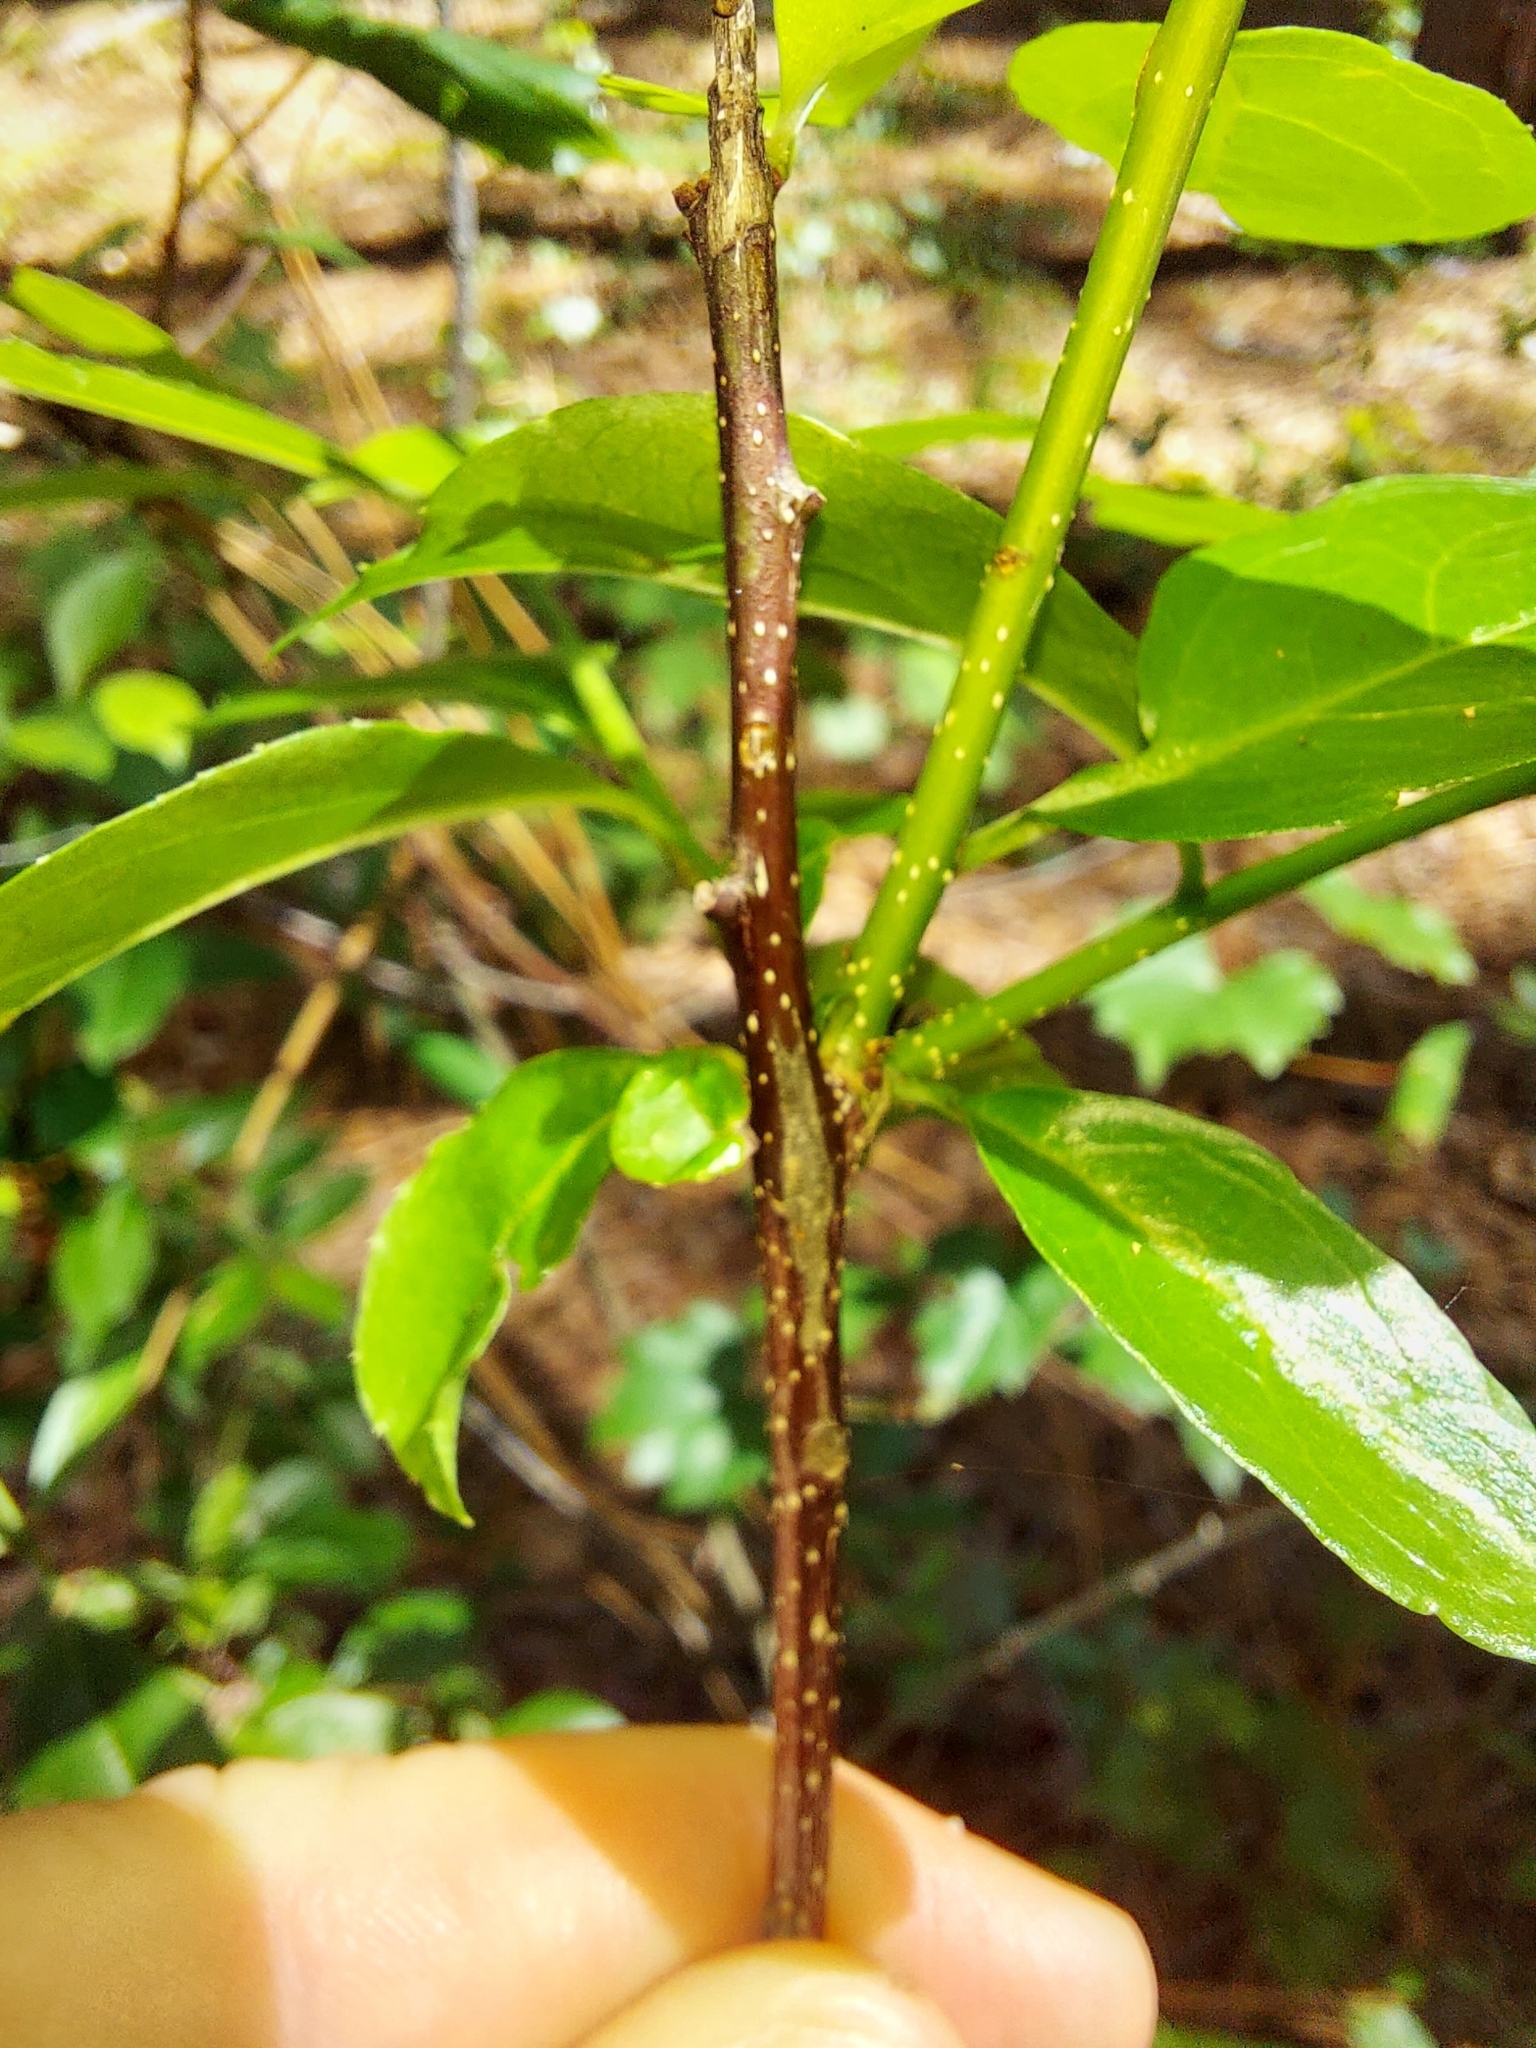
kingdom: Plantae
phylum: Tracheophyta
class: Magnoliopsida
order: Aquifoliales
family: Aquifoliaceae
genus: Ilex
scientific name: Ilex ambigua
